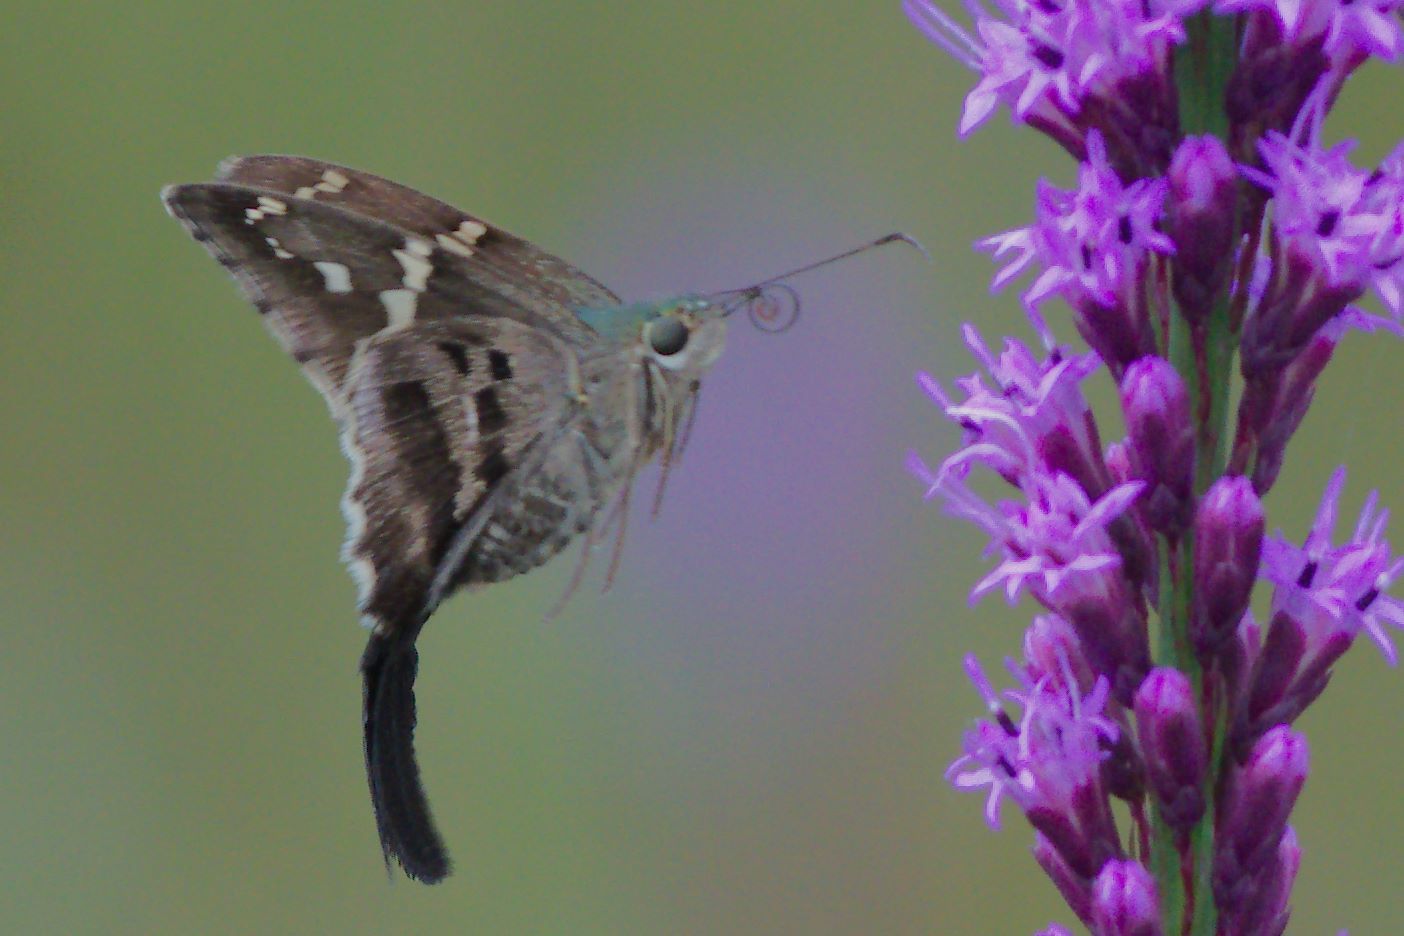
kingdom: Animalia
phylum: Arthropoda
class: Insecta
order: Lepidoptera
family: Hesperiidae
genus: Urbanus
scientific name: Urbanus proteus
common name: Long-tailed skipper
